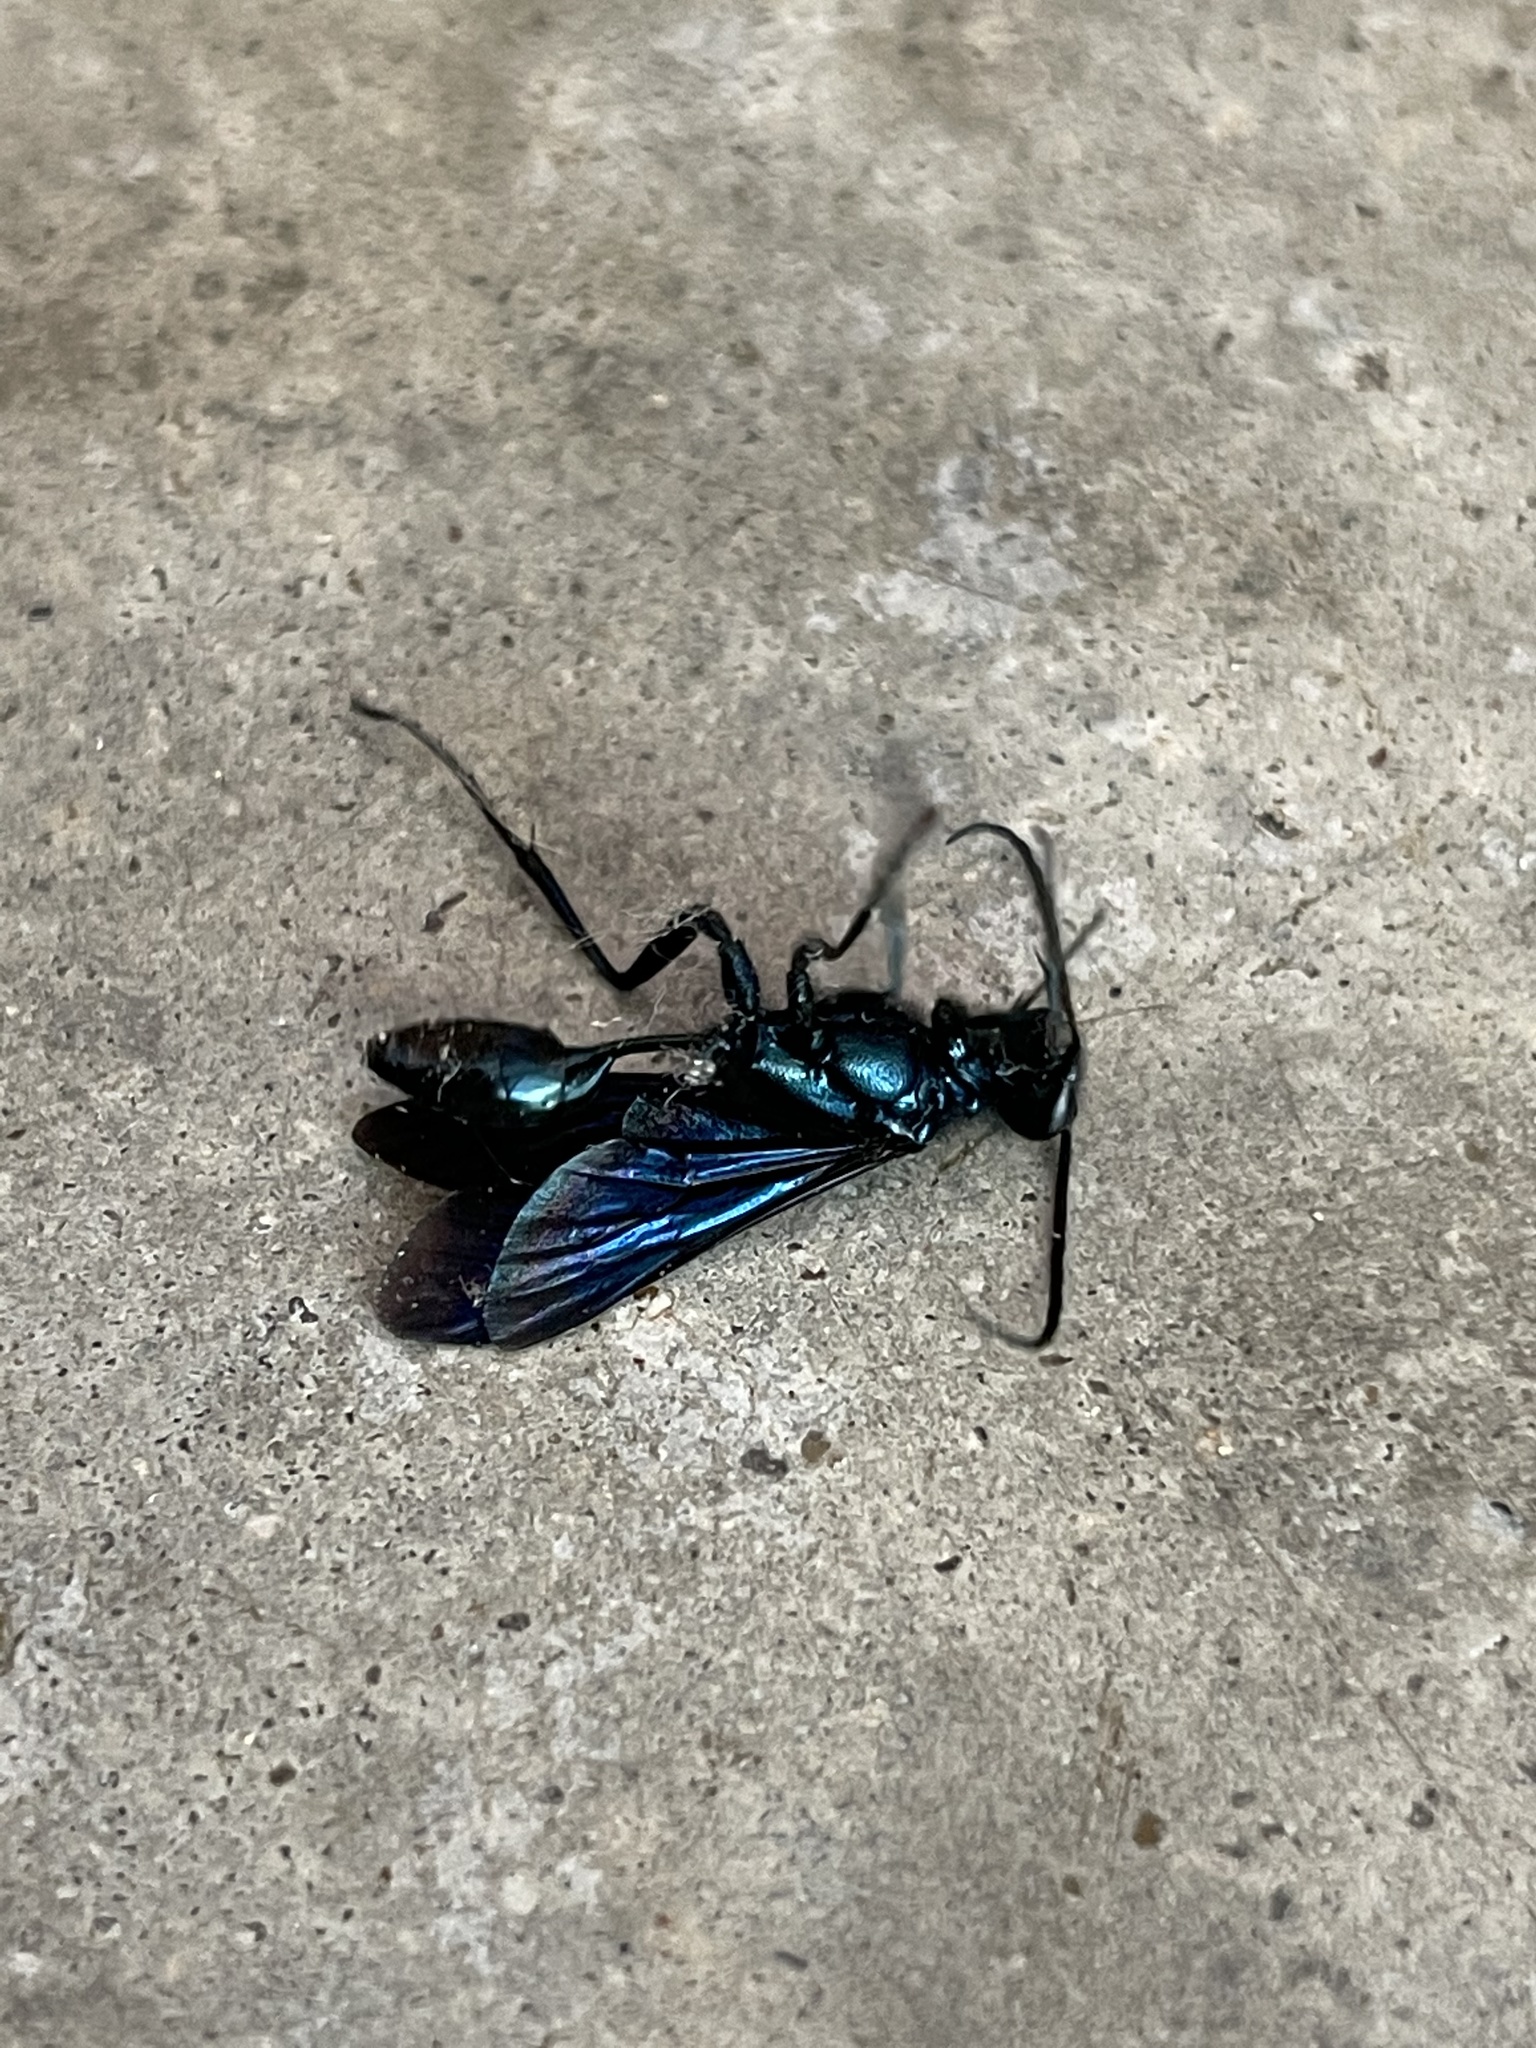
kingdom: Animalia
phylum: Arthropoda
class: Insecta
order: Hymenoptera
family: Sphecidae
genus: Chalybion
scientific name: Chalybion californicum
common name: Mud dauber
